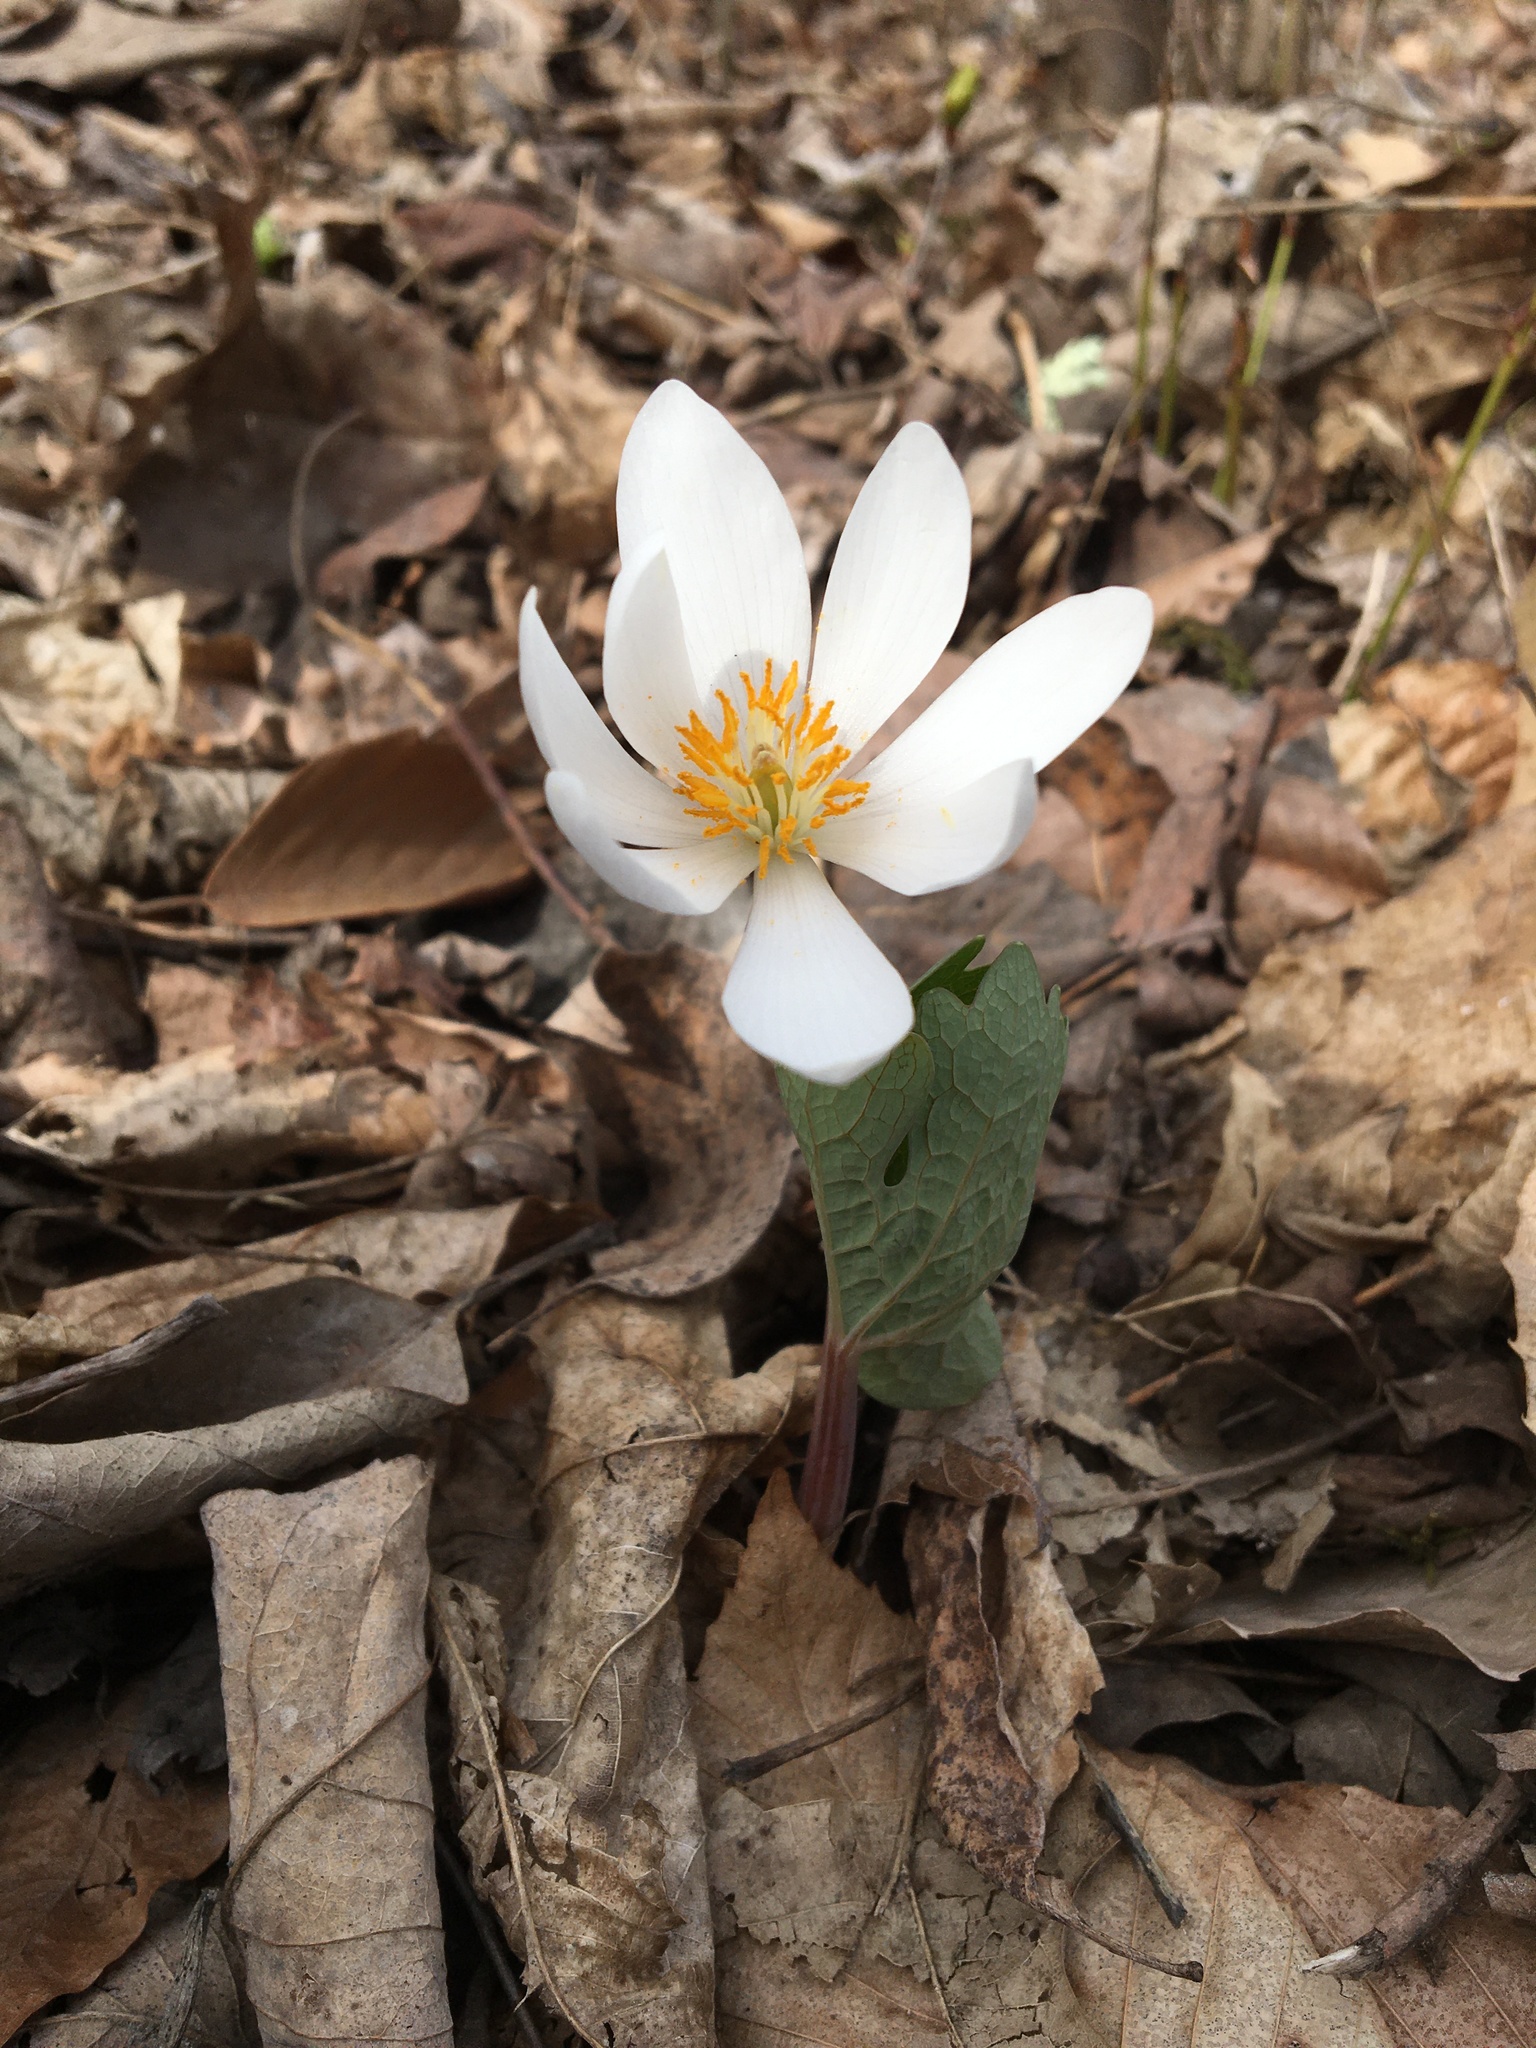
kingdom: Plantae
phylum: Tracheophyta
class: Magnoliopsida
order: Ranunculales
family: Papaveraceae
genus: Sanguinaria
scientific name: Sanguinaria canadensis
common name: Bloodroot
